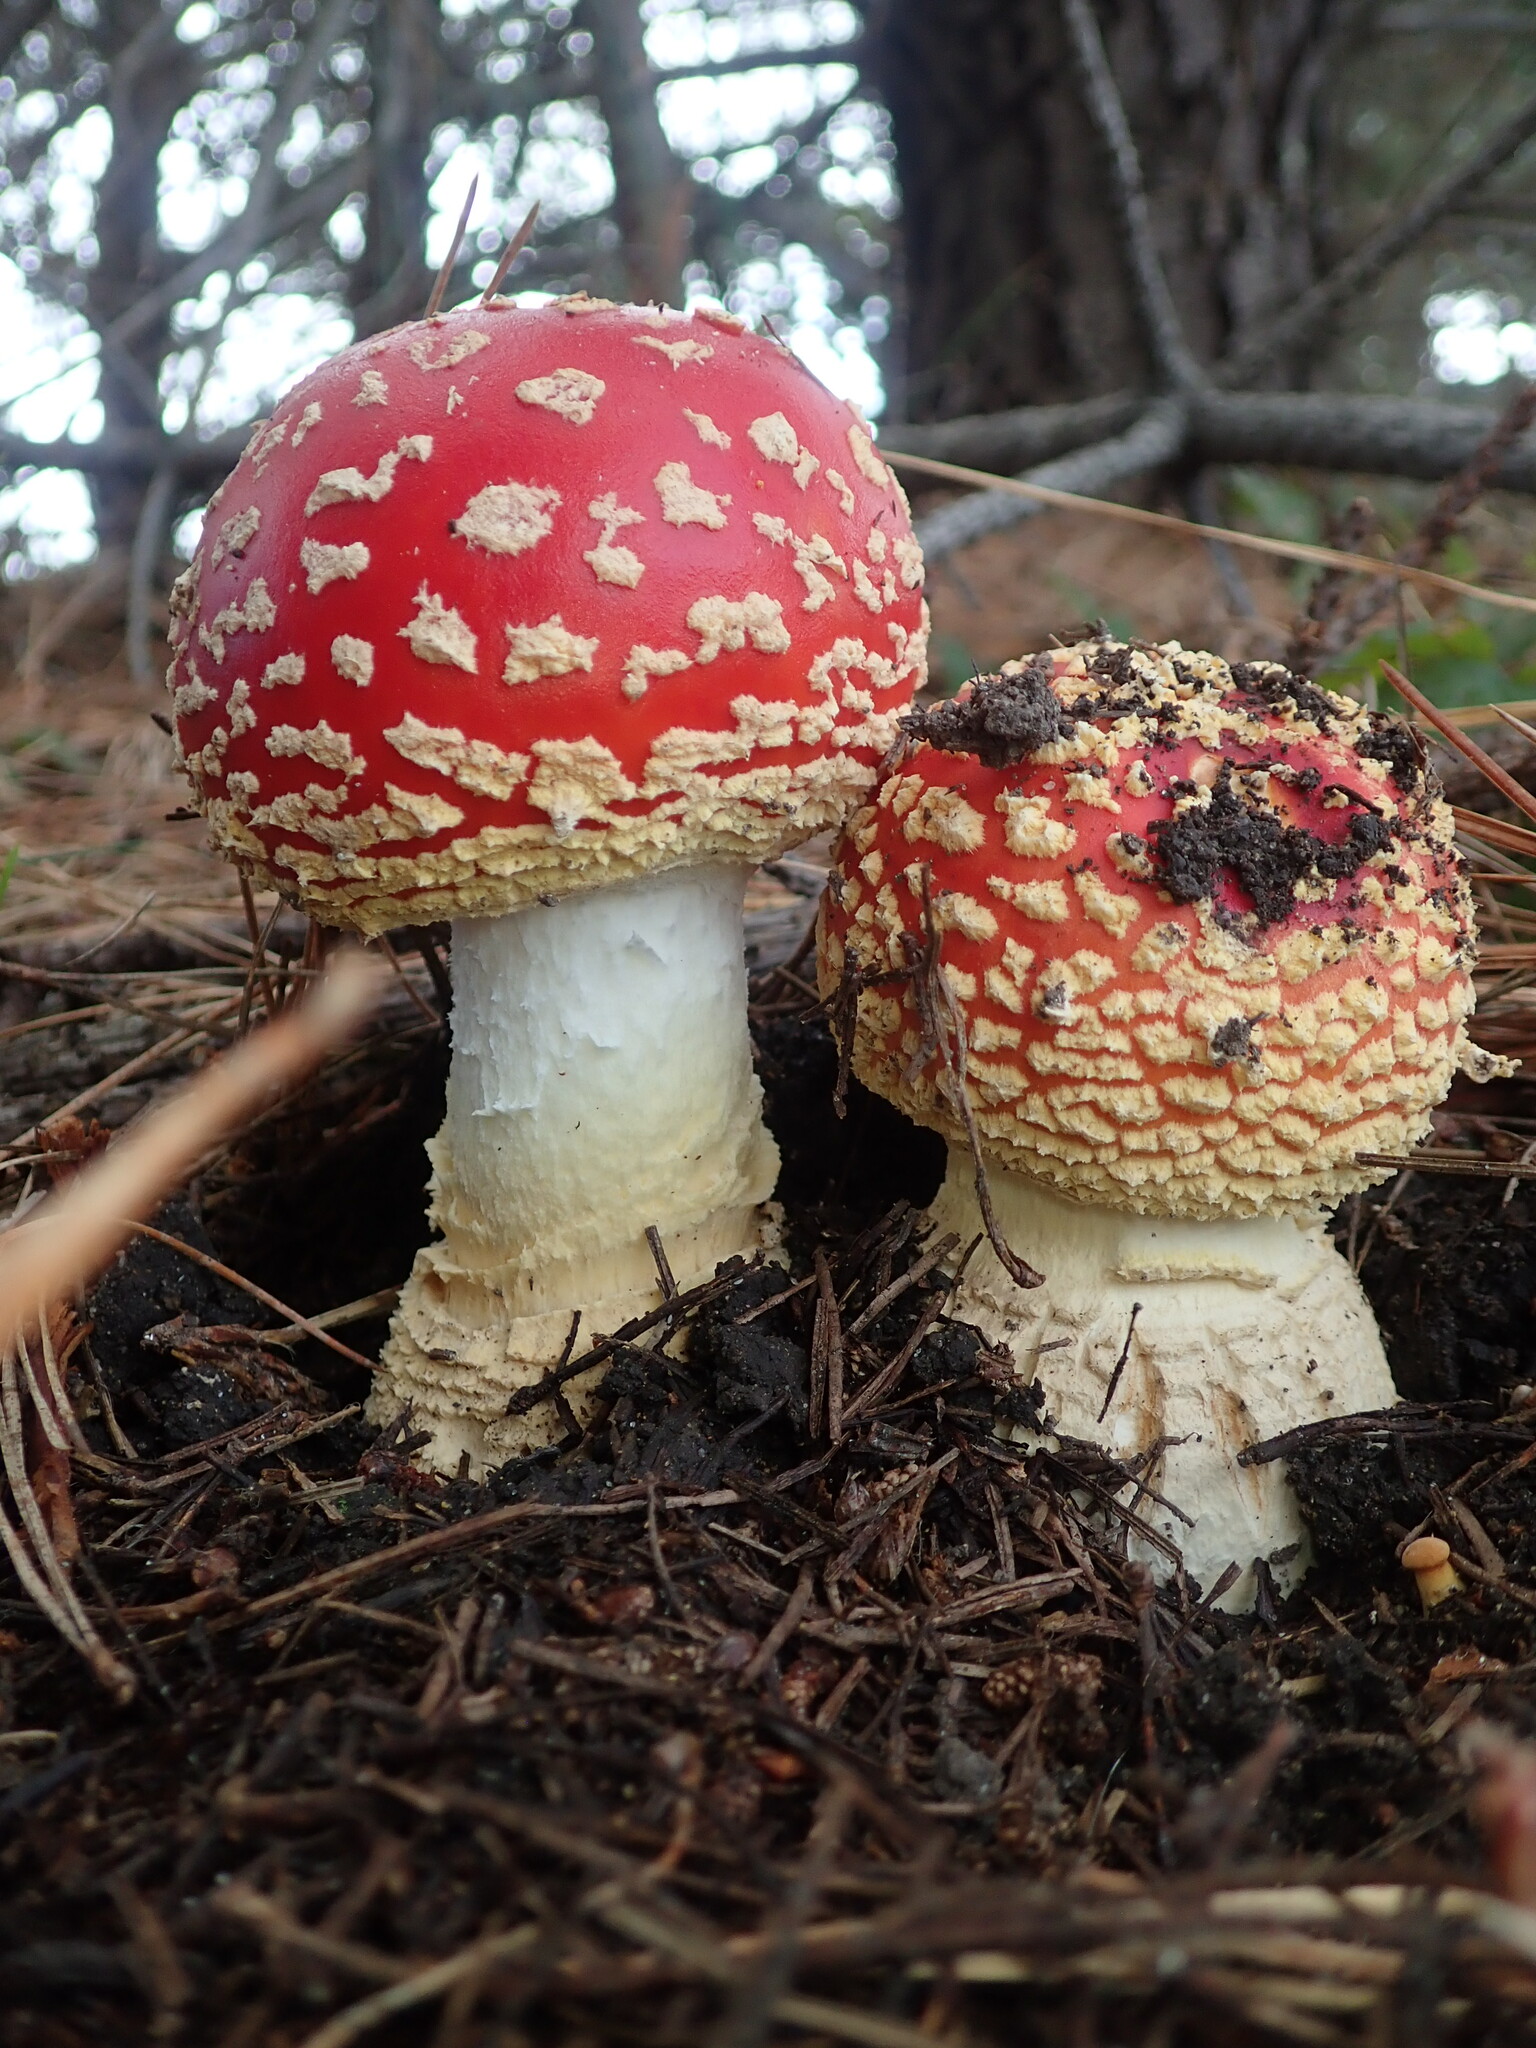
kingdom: Fungi
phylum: Basidiomycota
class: Agaricomycetes
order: Agaricales
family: Amanitaceae
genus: Amanita
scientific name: Amanita muscaria
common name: Fly agaric
